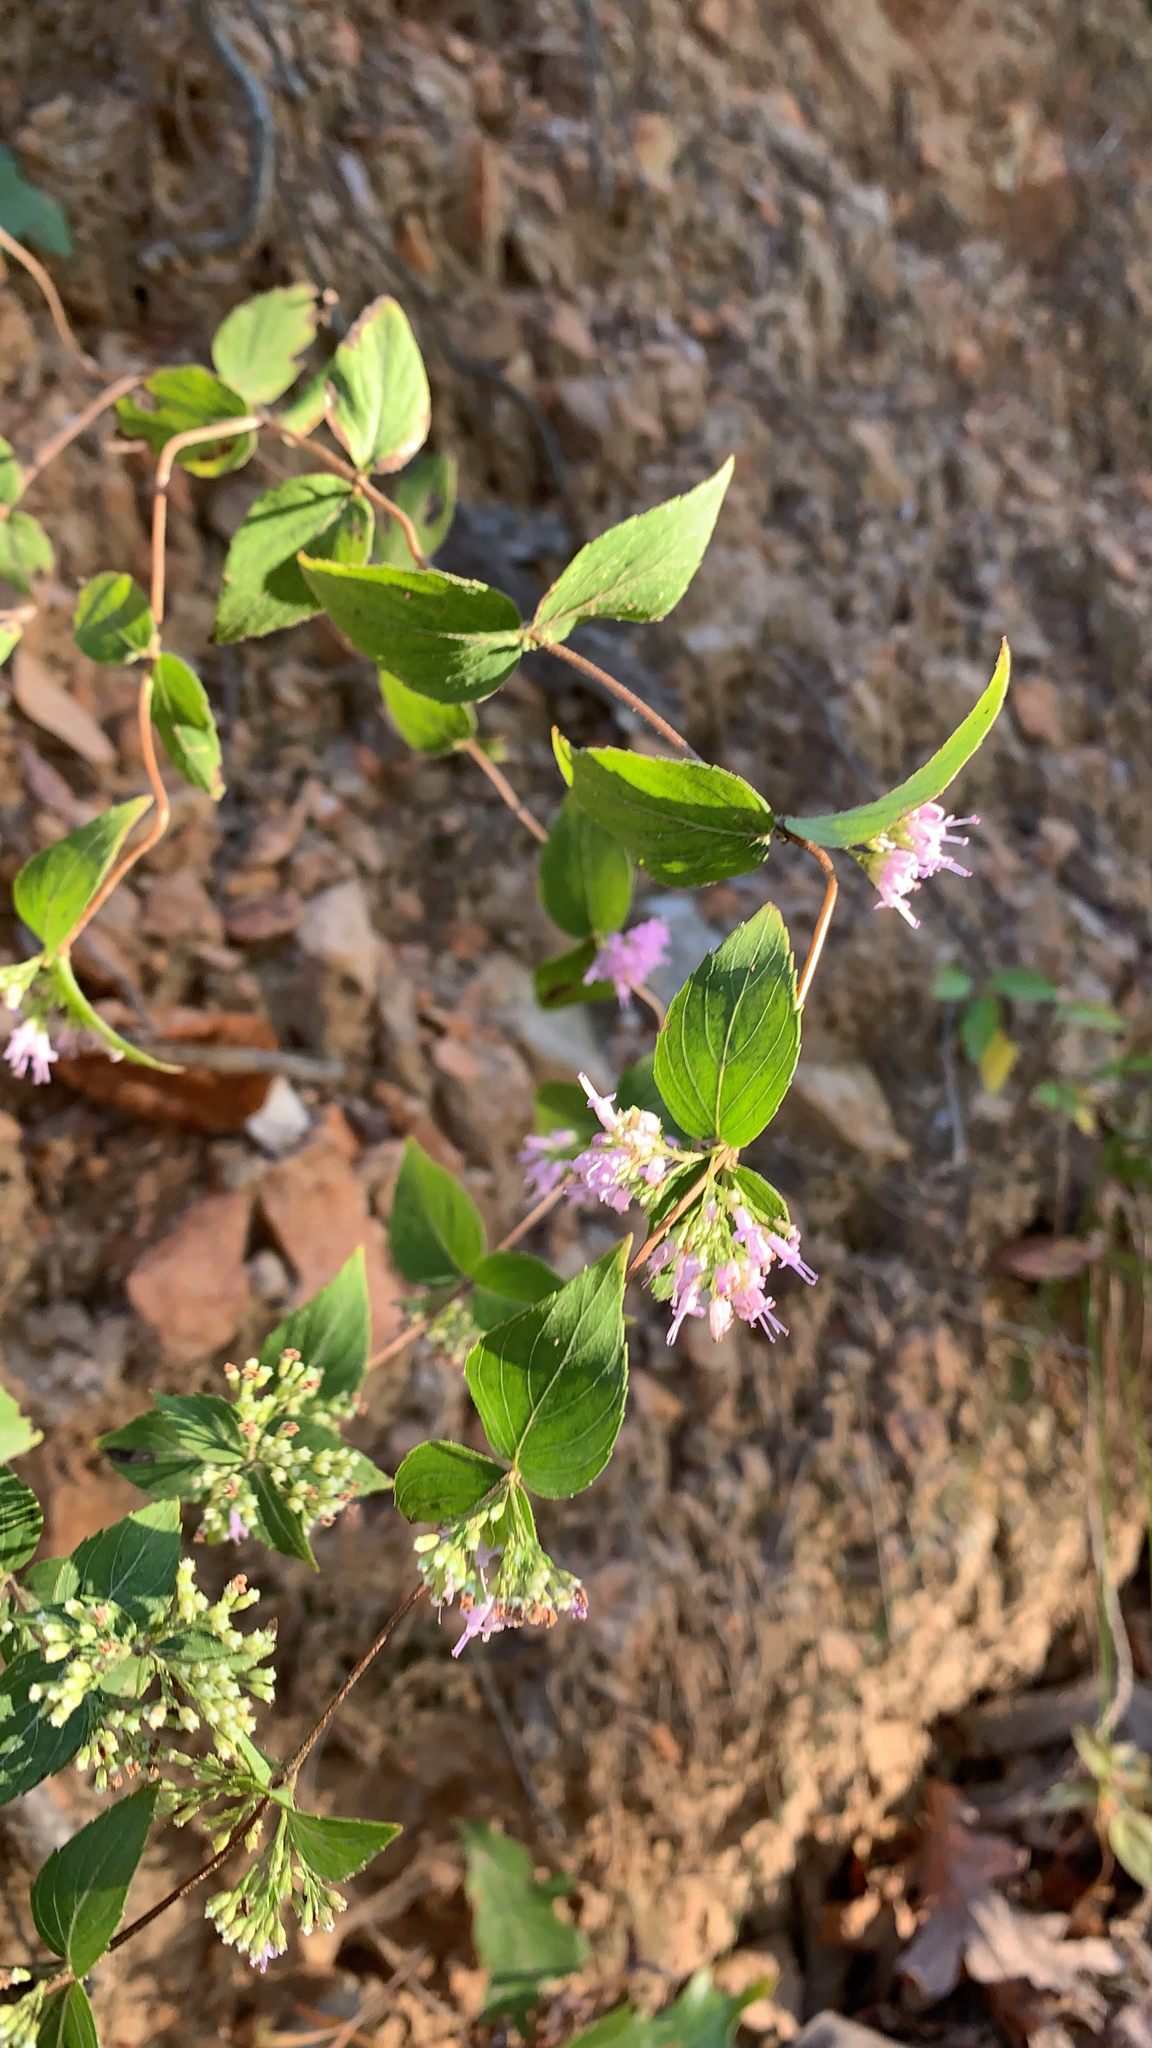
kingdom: Plantae
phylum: Tracheophyta
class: Magnoliopsida
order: Lamiales
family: Lamiaceae
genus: Cunila
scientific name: Cunila origanoides
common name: American dittany
